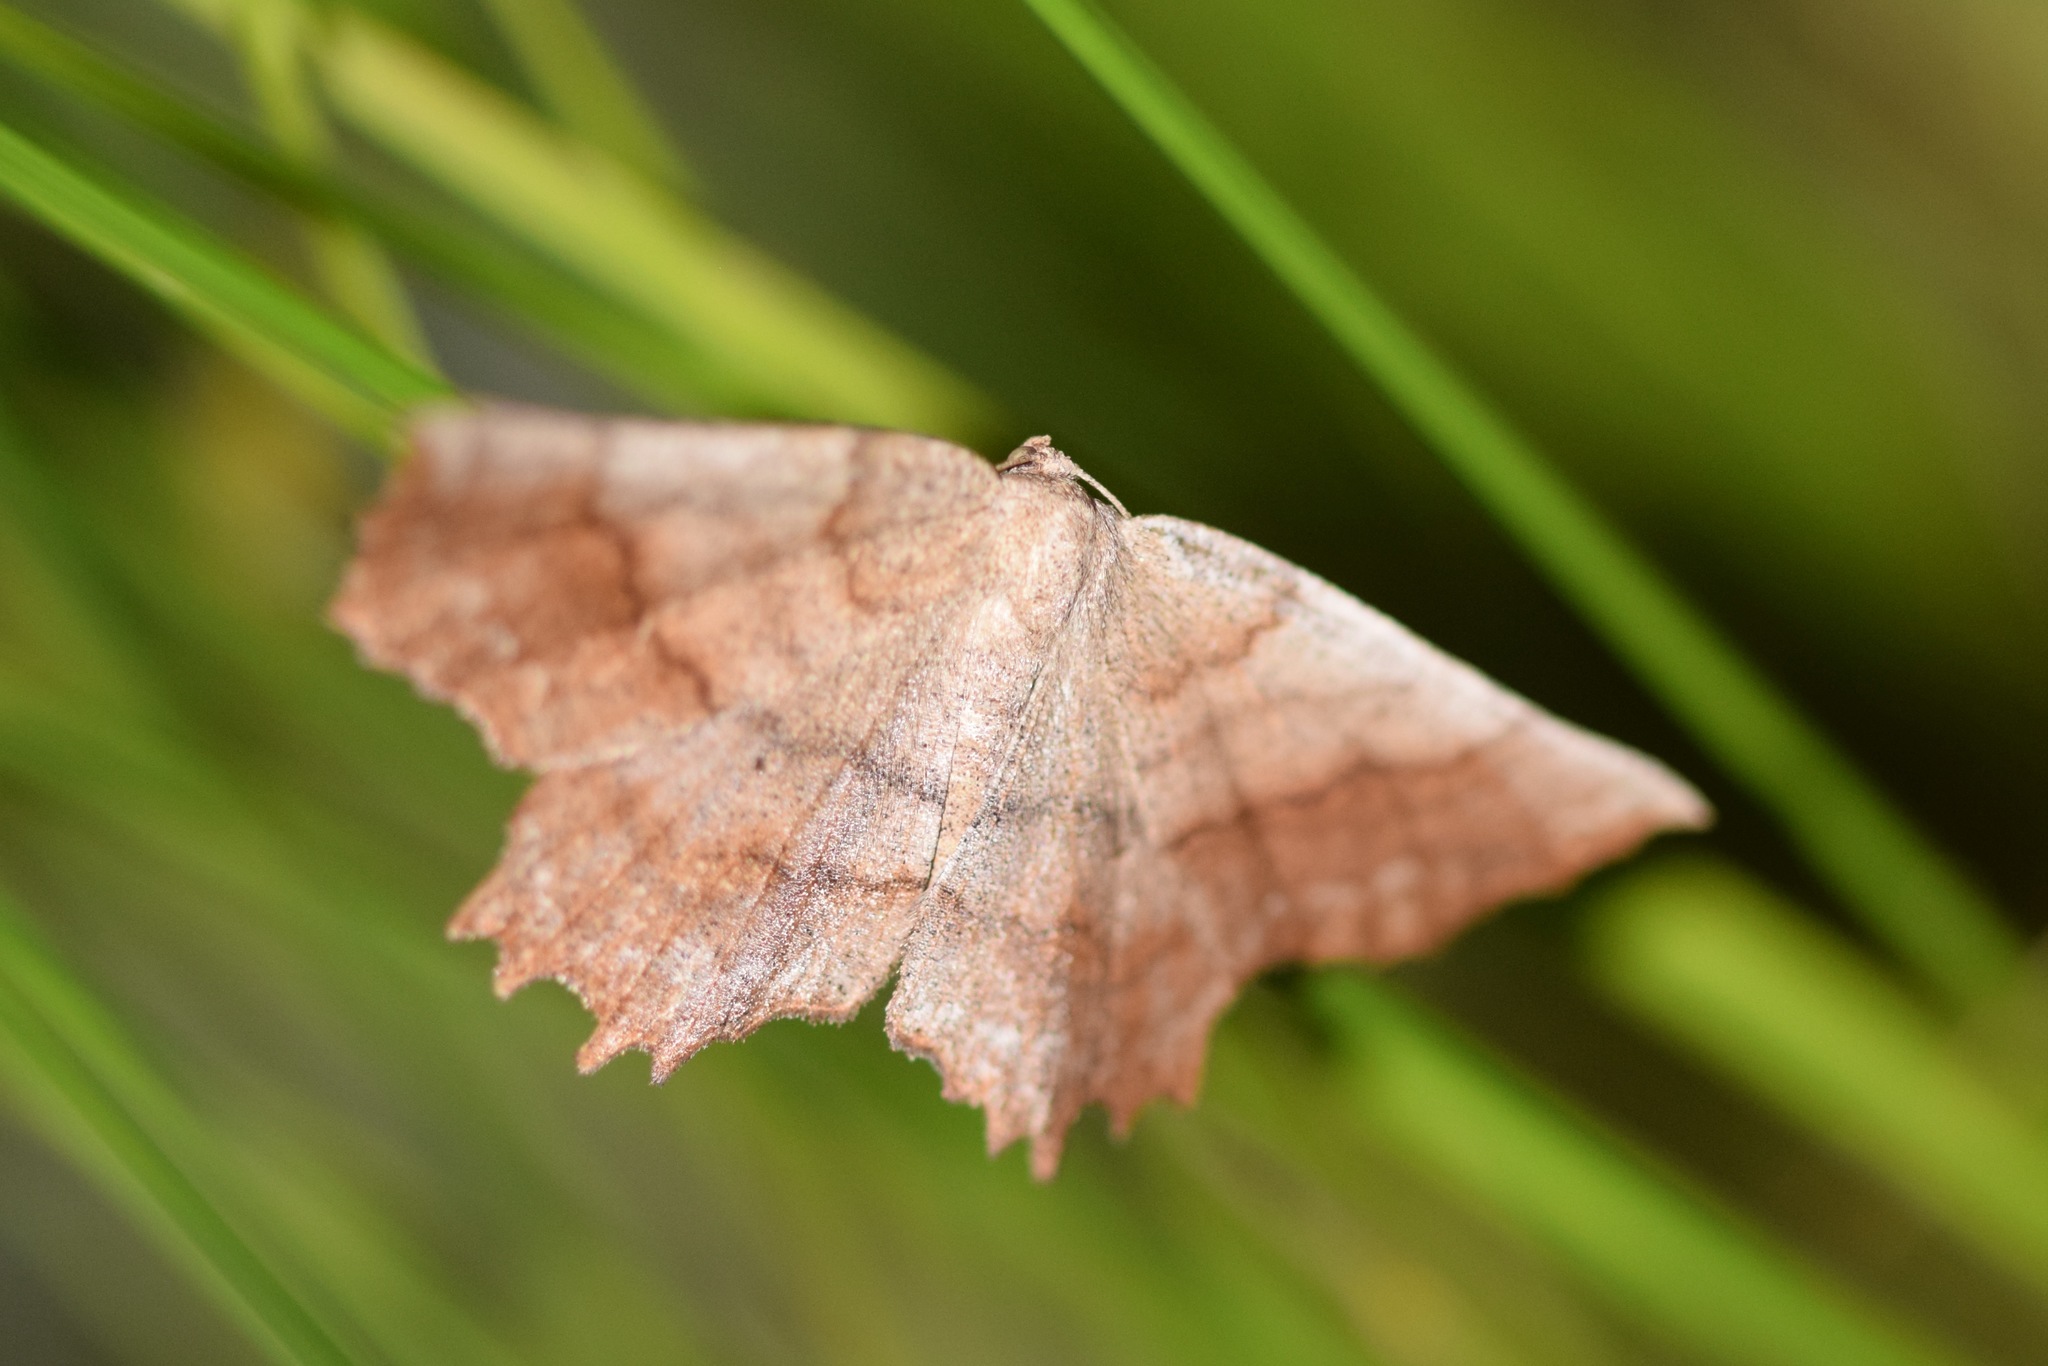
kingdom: Animalia
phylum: Arthropoda
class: Insecta
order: Lepidoptera
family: Geometridae
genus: Euchlaena
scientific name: Euchlaena effecta
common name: Effective euchlaena moth
